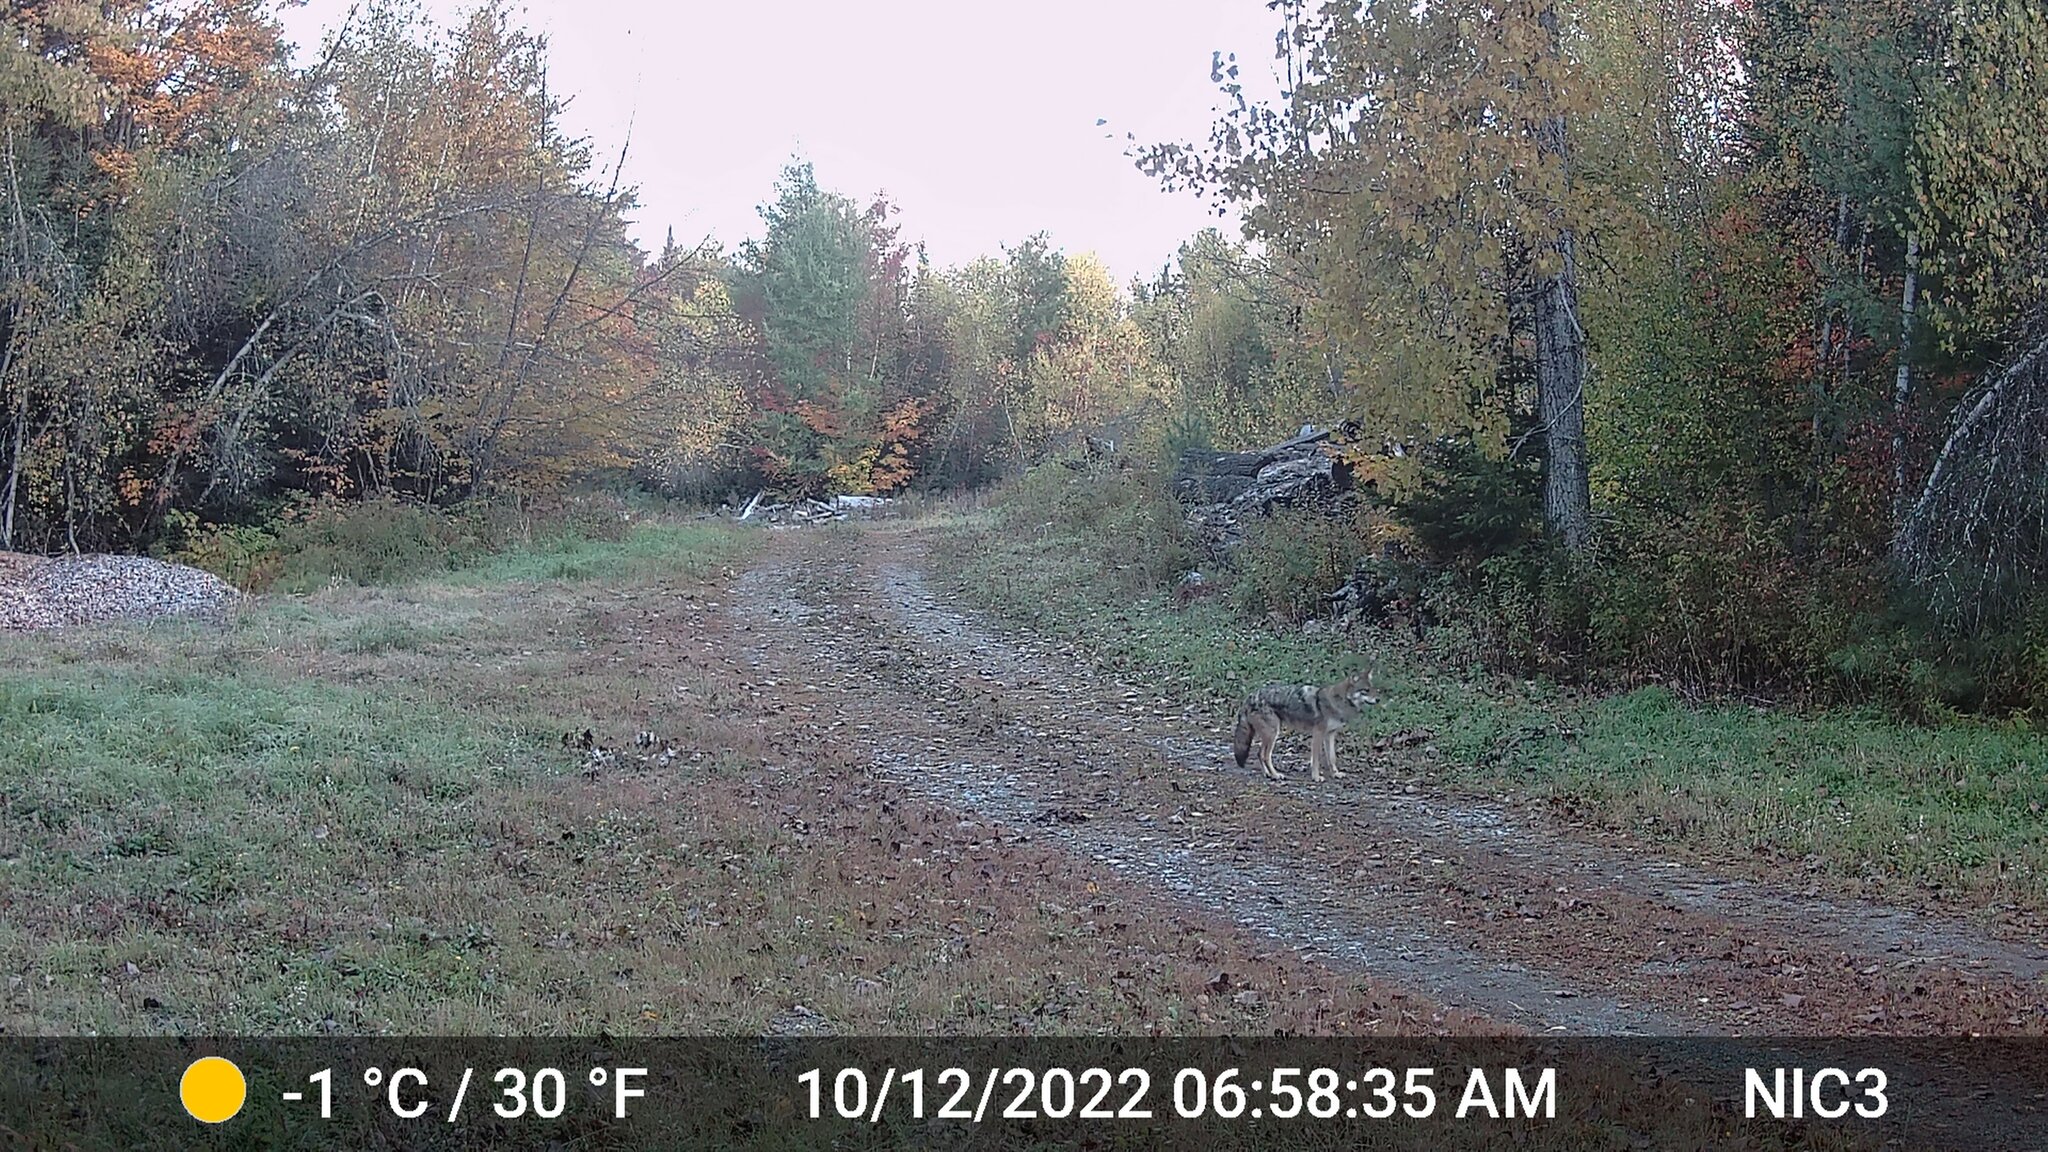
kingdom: Animalia
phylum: Chordata
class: Mammalia
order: Carnivora
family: Canidae
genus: Canis
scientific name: Canis latrans
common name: Coyote
